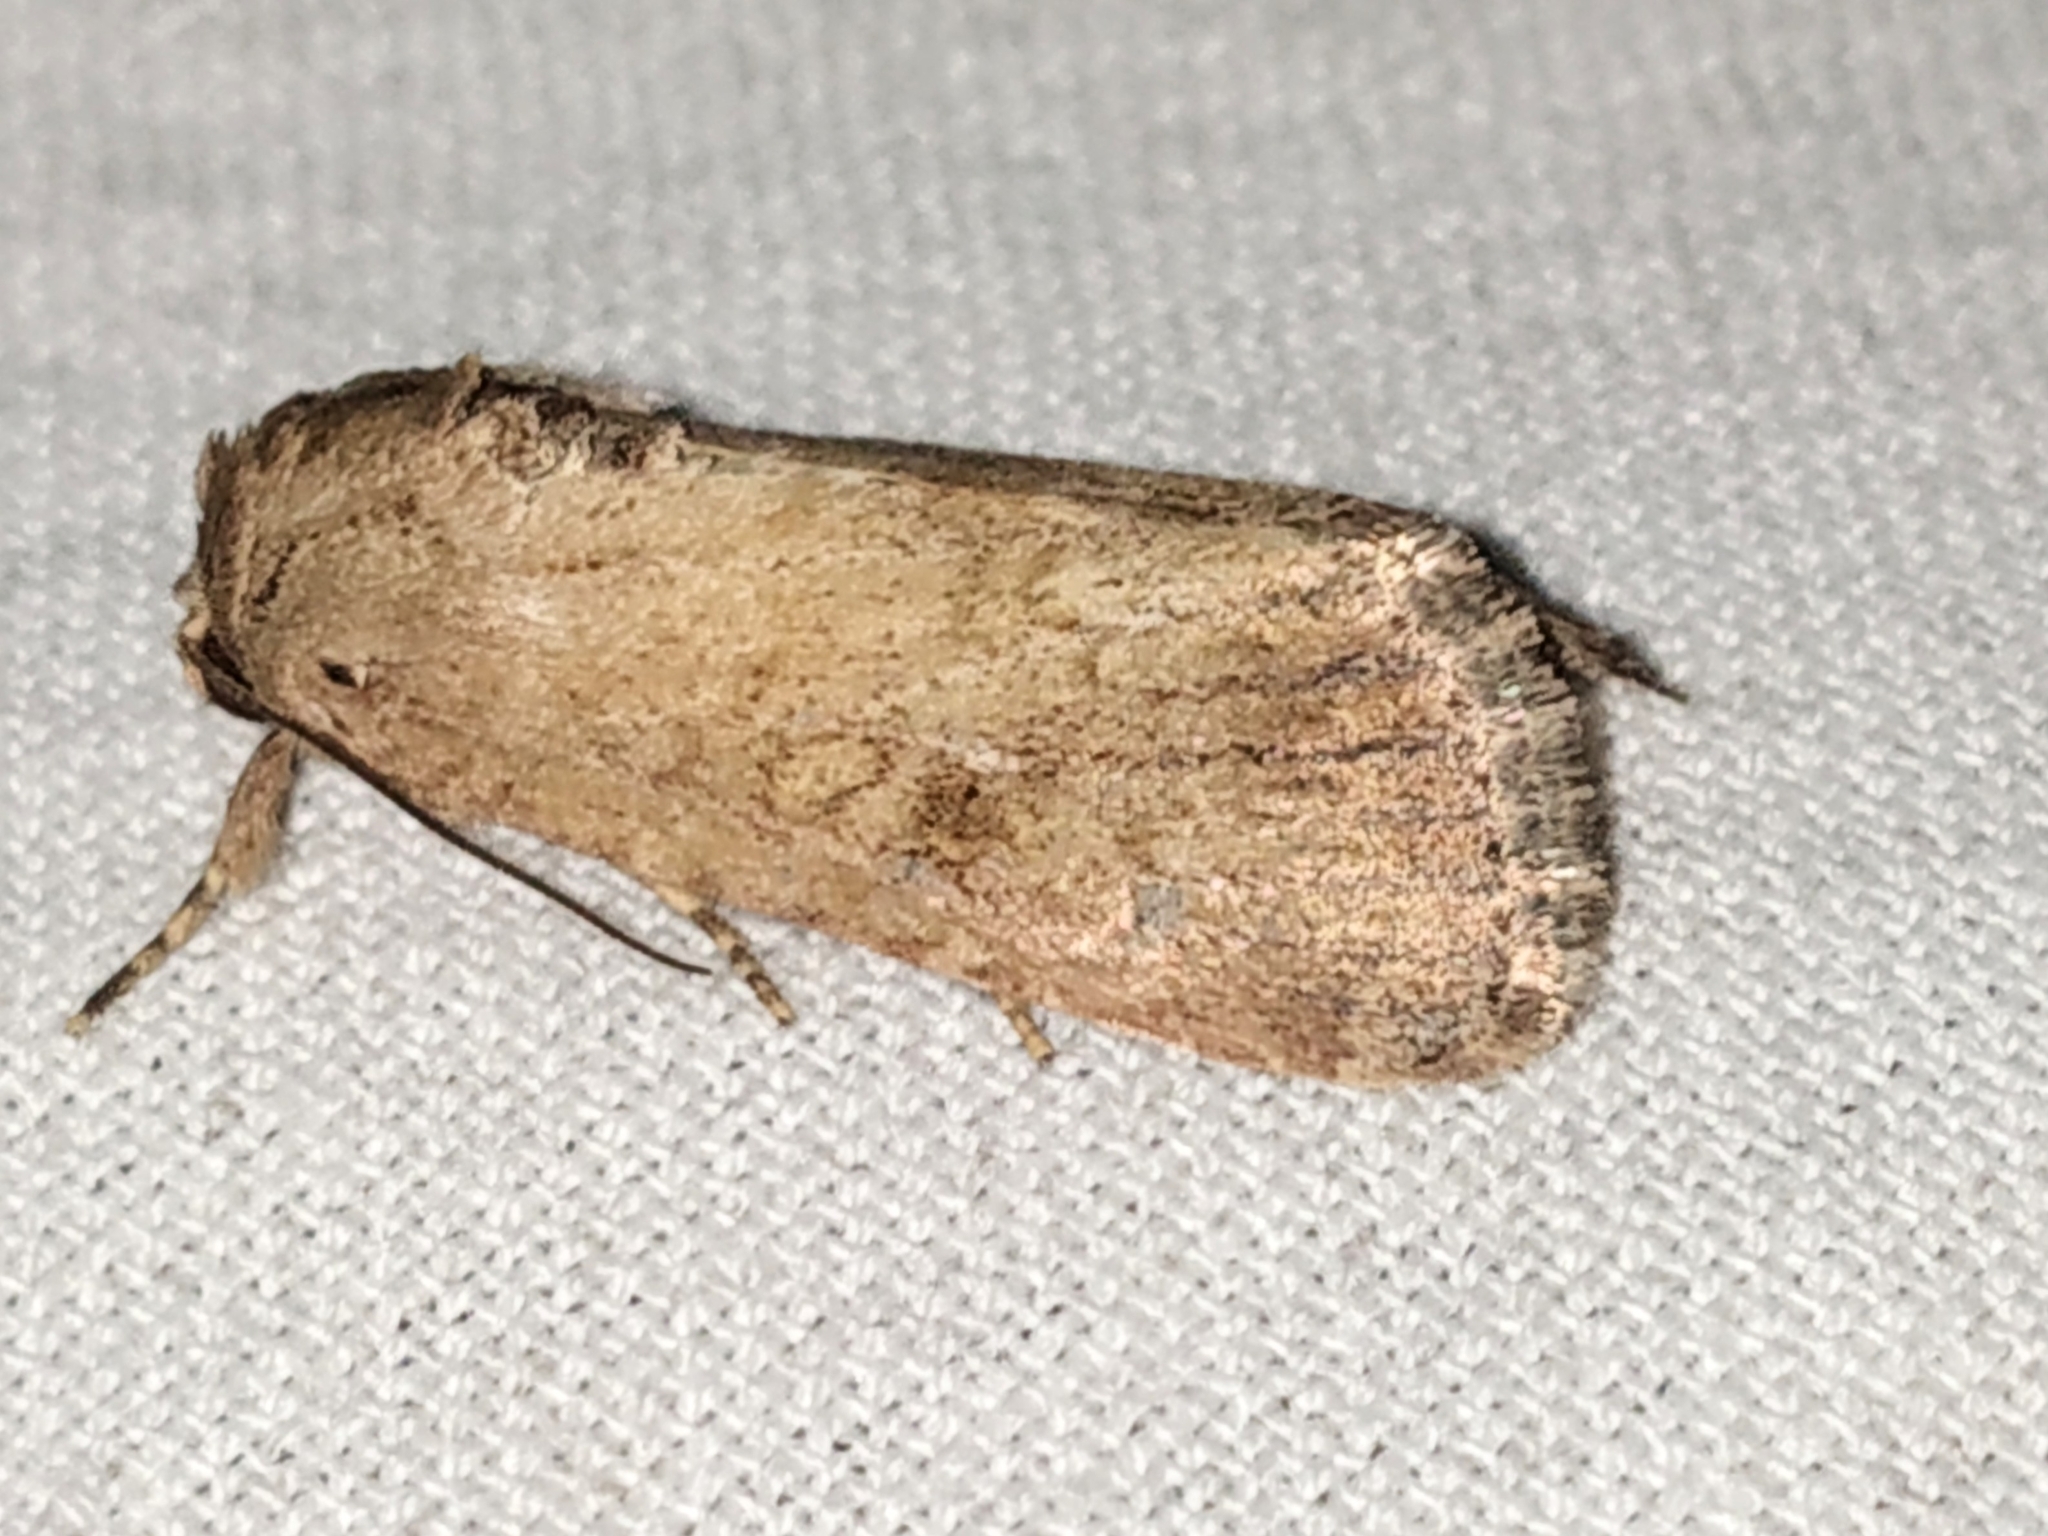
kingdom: Animalia
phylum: Arthropoda
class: Insecta
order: Lepidoptera
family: Noctuidae
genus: Spodoptera
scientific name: Spodoptera pecten
